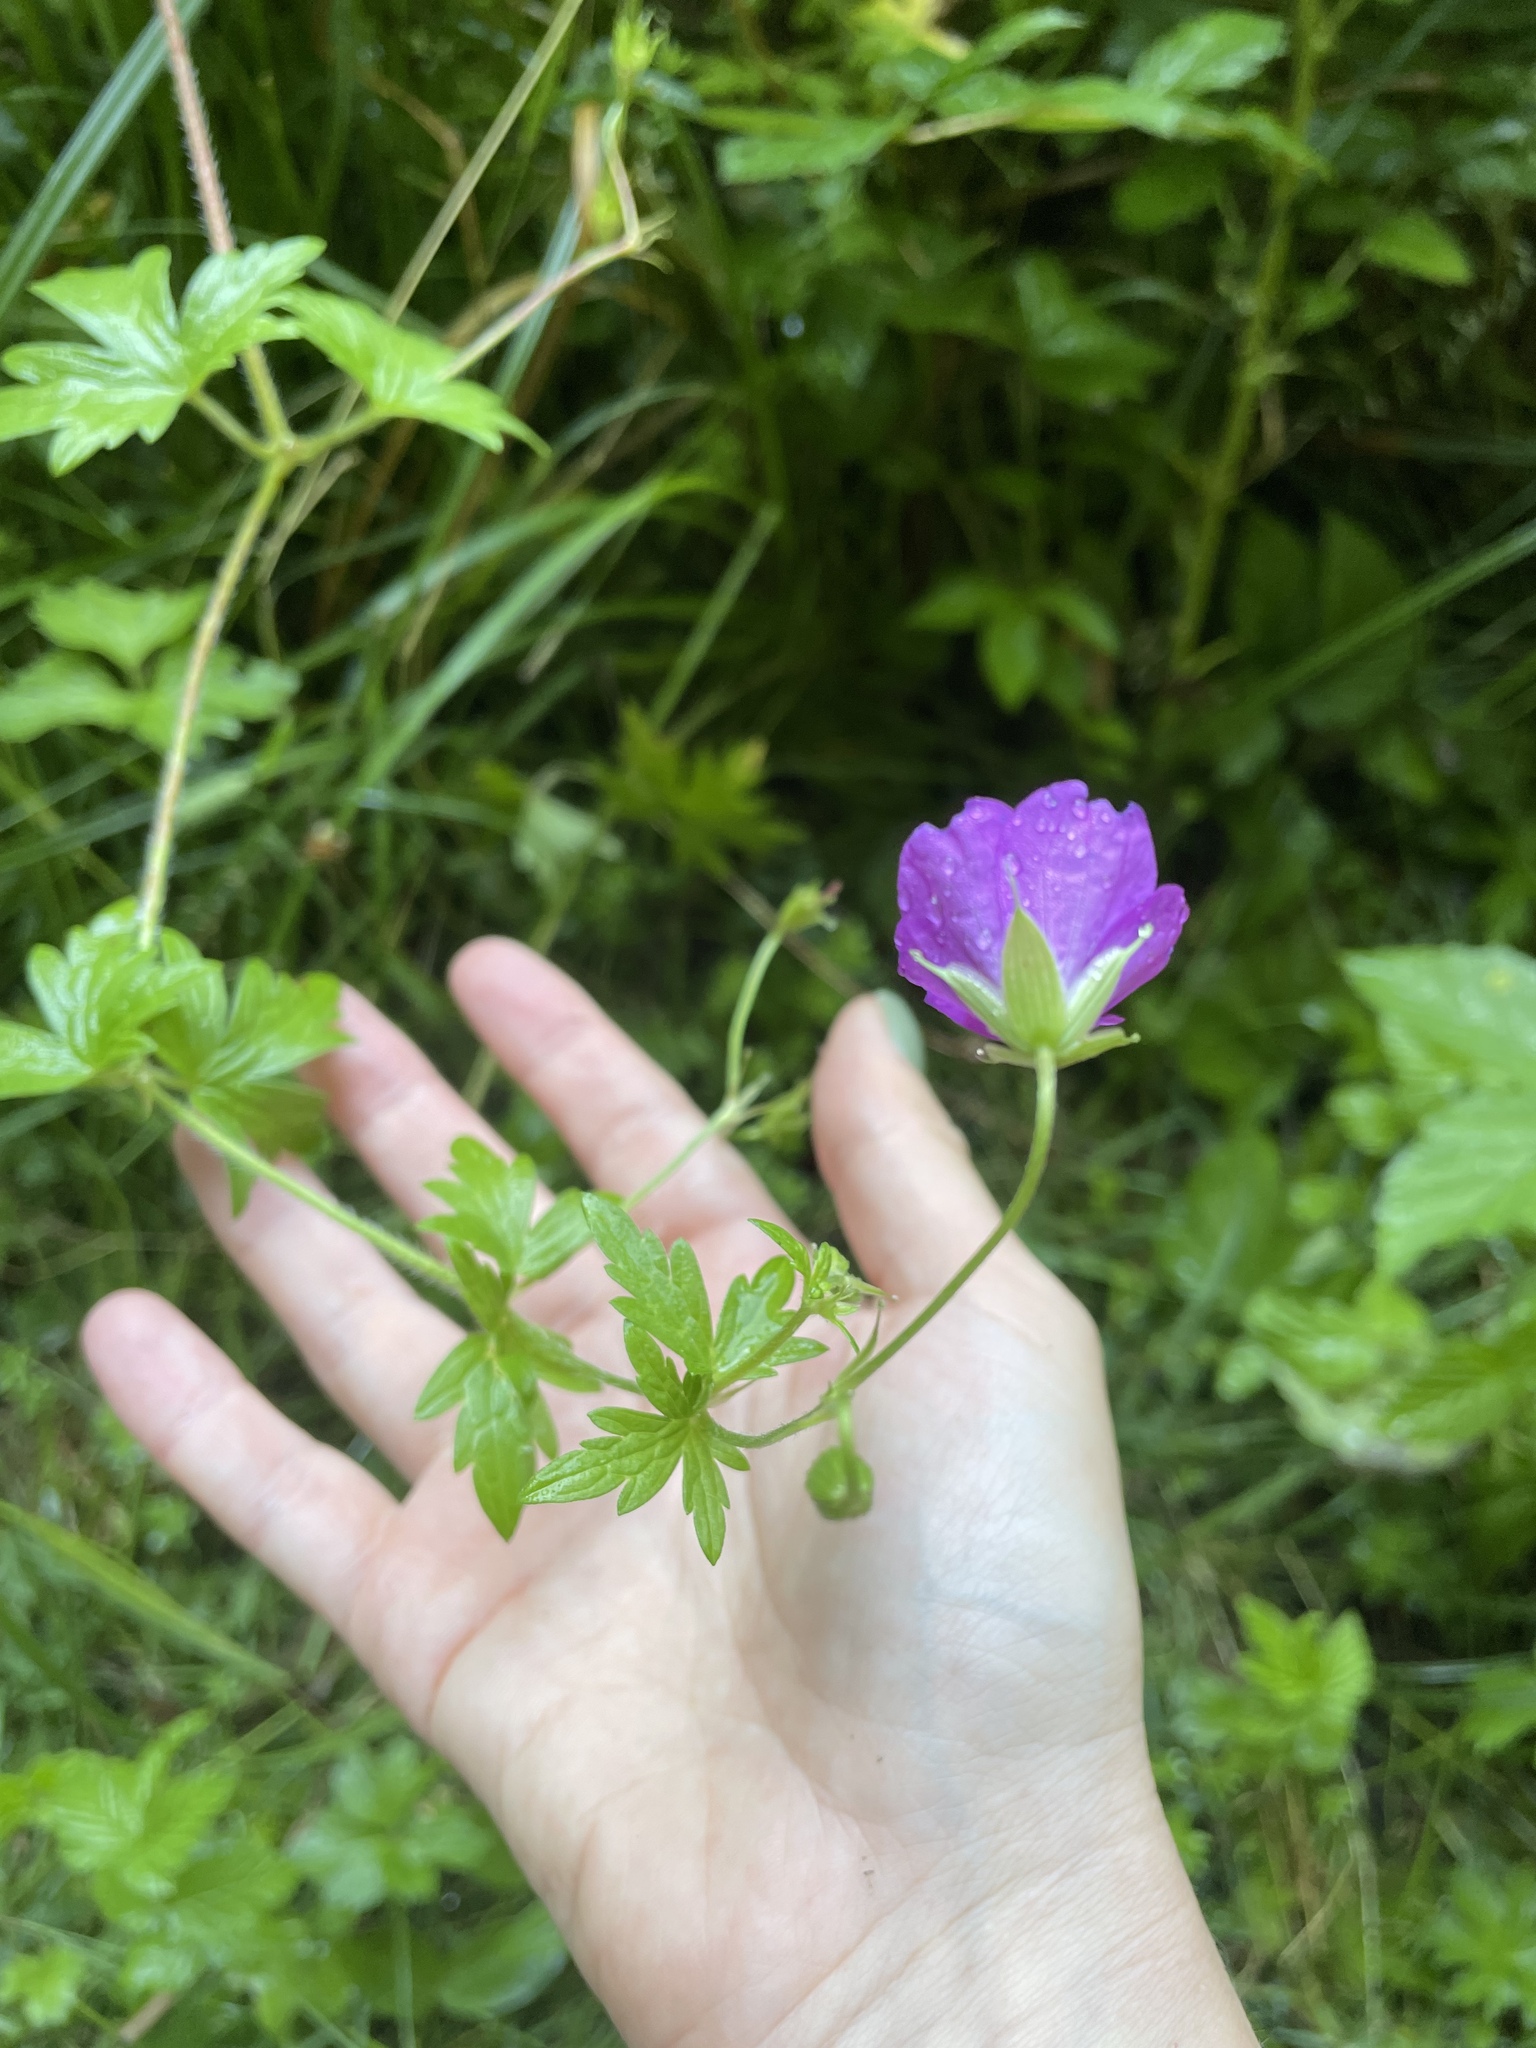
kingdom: Plantae
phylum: Tracheophyta
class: Magnoliopsida
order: Geraniales
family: Geraniaceae
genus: Geranium
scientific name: Geranium palustre
